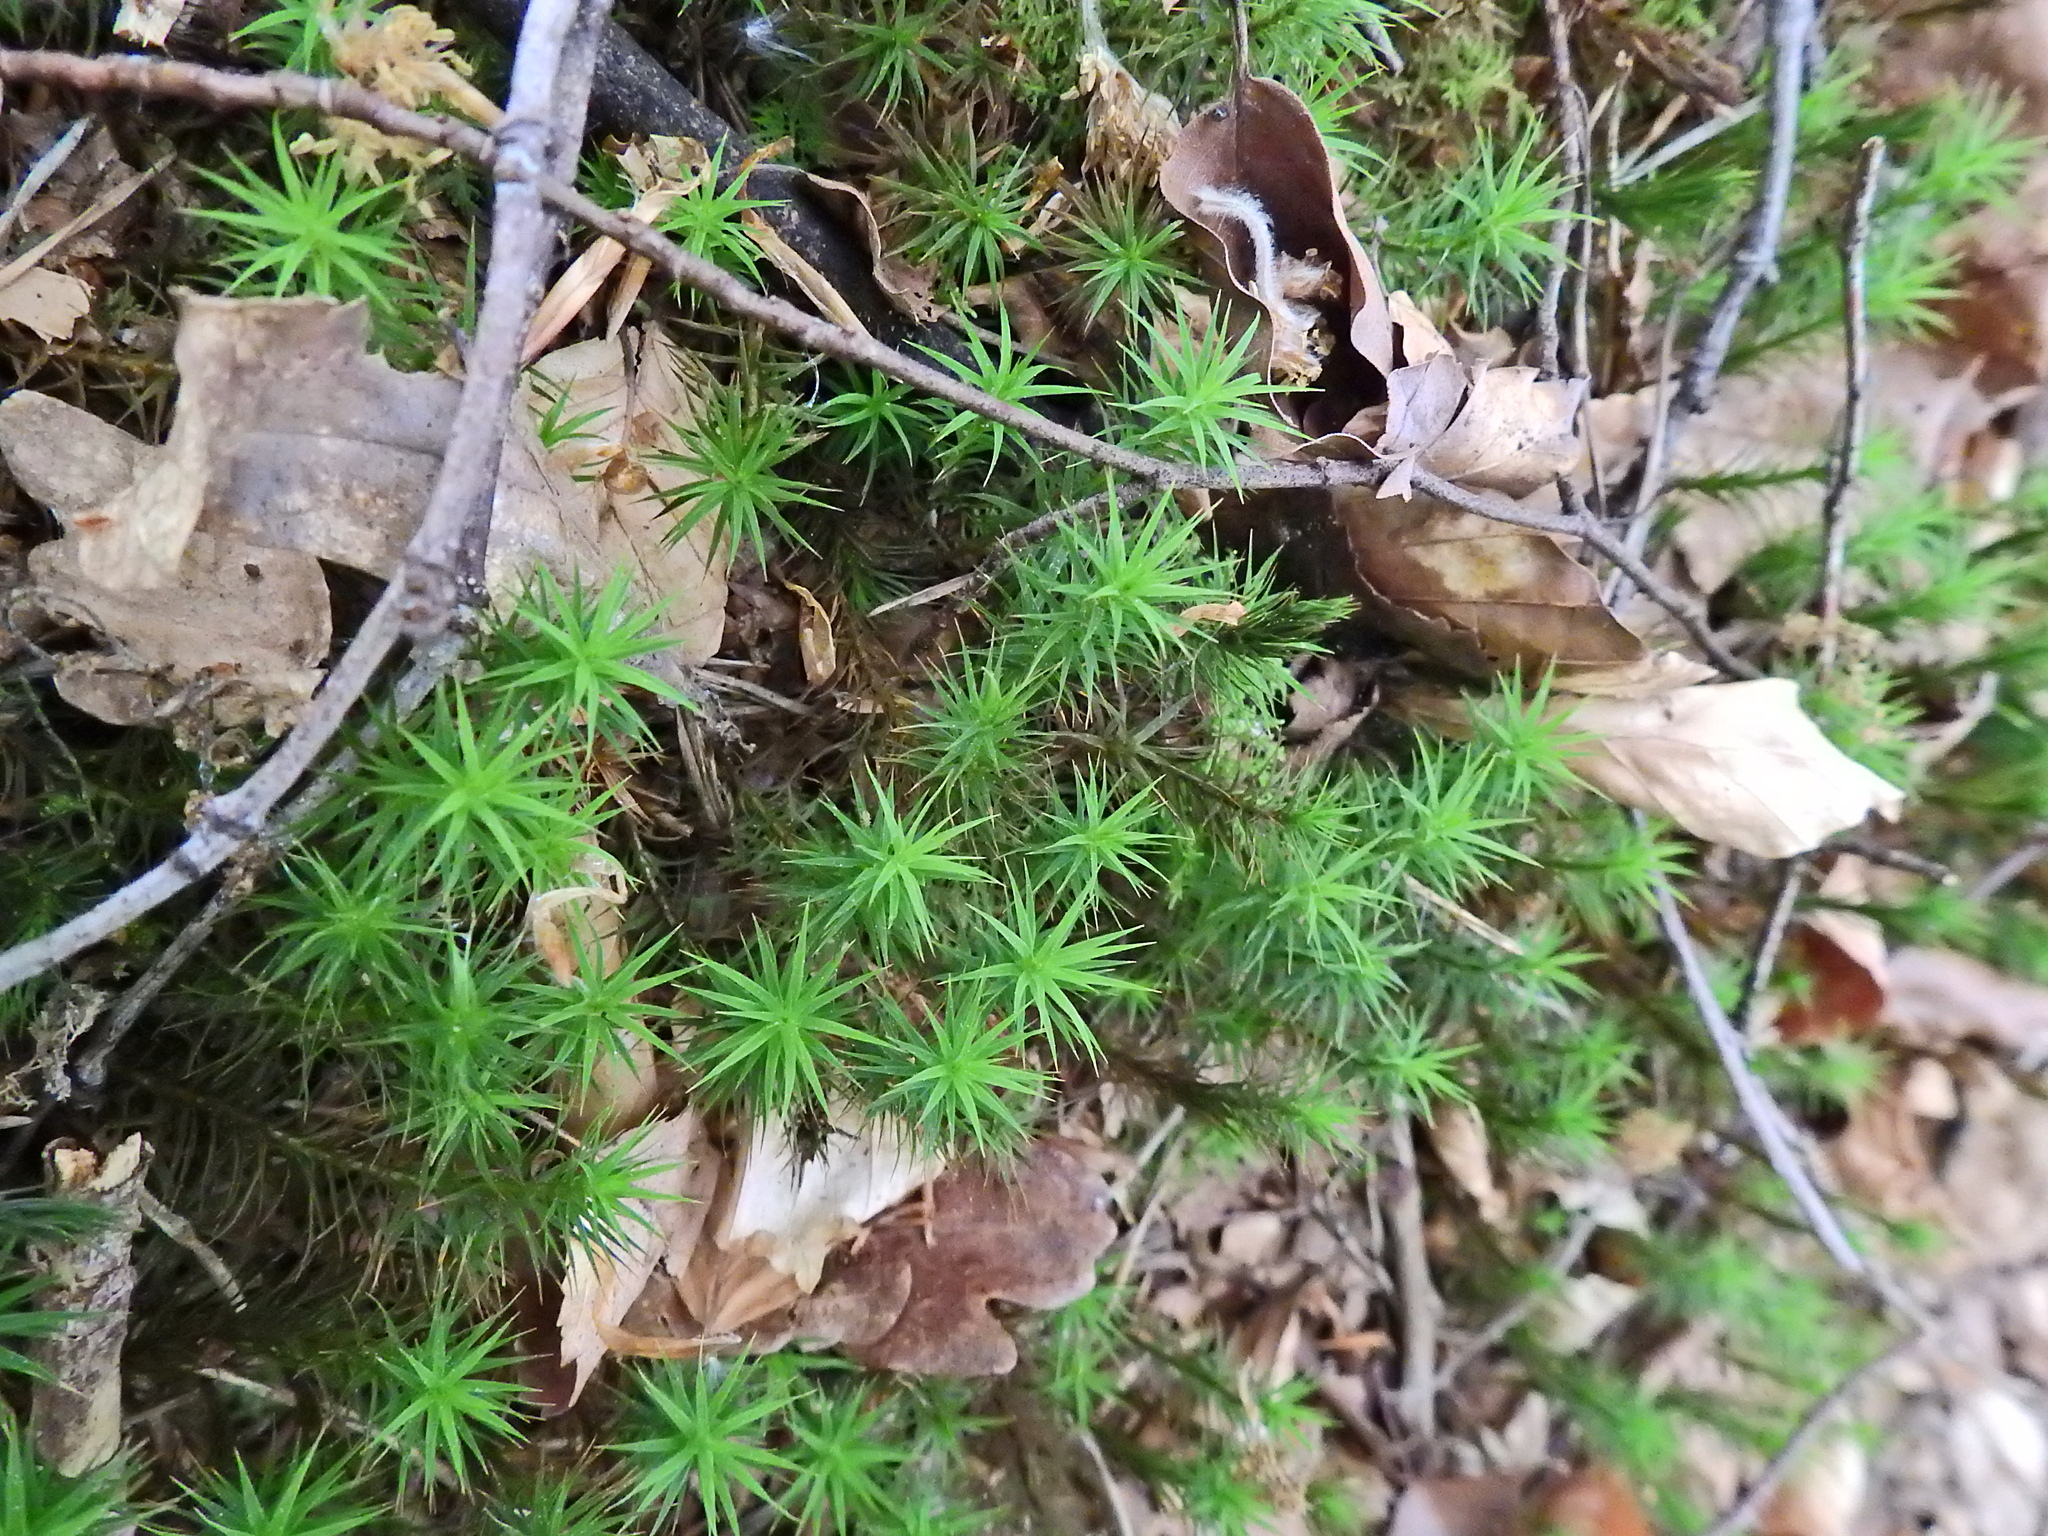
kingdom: Plantae
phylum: Bryophyta
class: Polytrichopsida
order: Polytrichales
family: Polytrichaceae
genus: Polytrichum
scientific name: Polytrichum formosum
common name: Bank haircap moss
